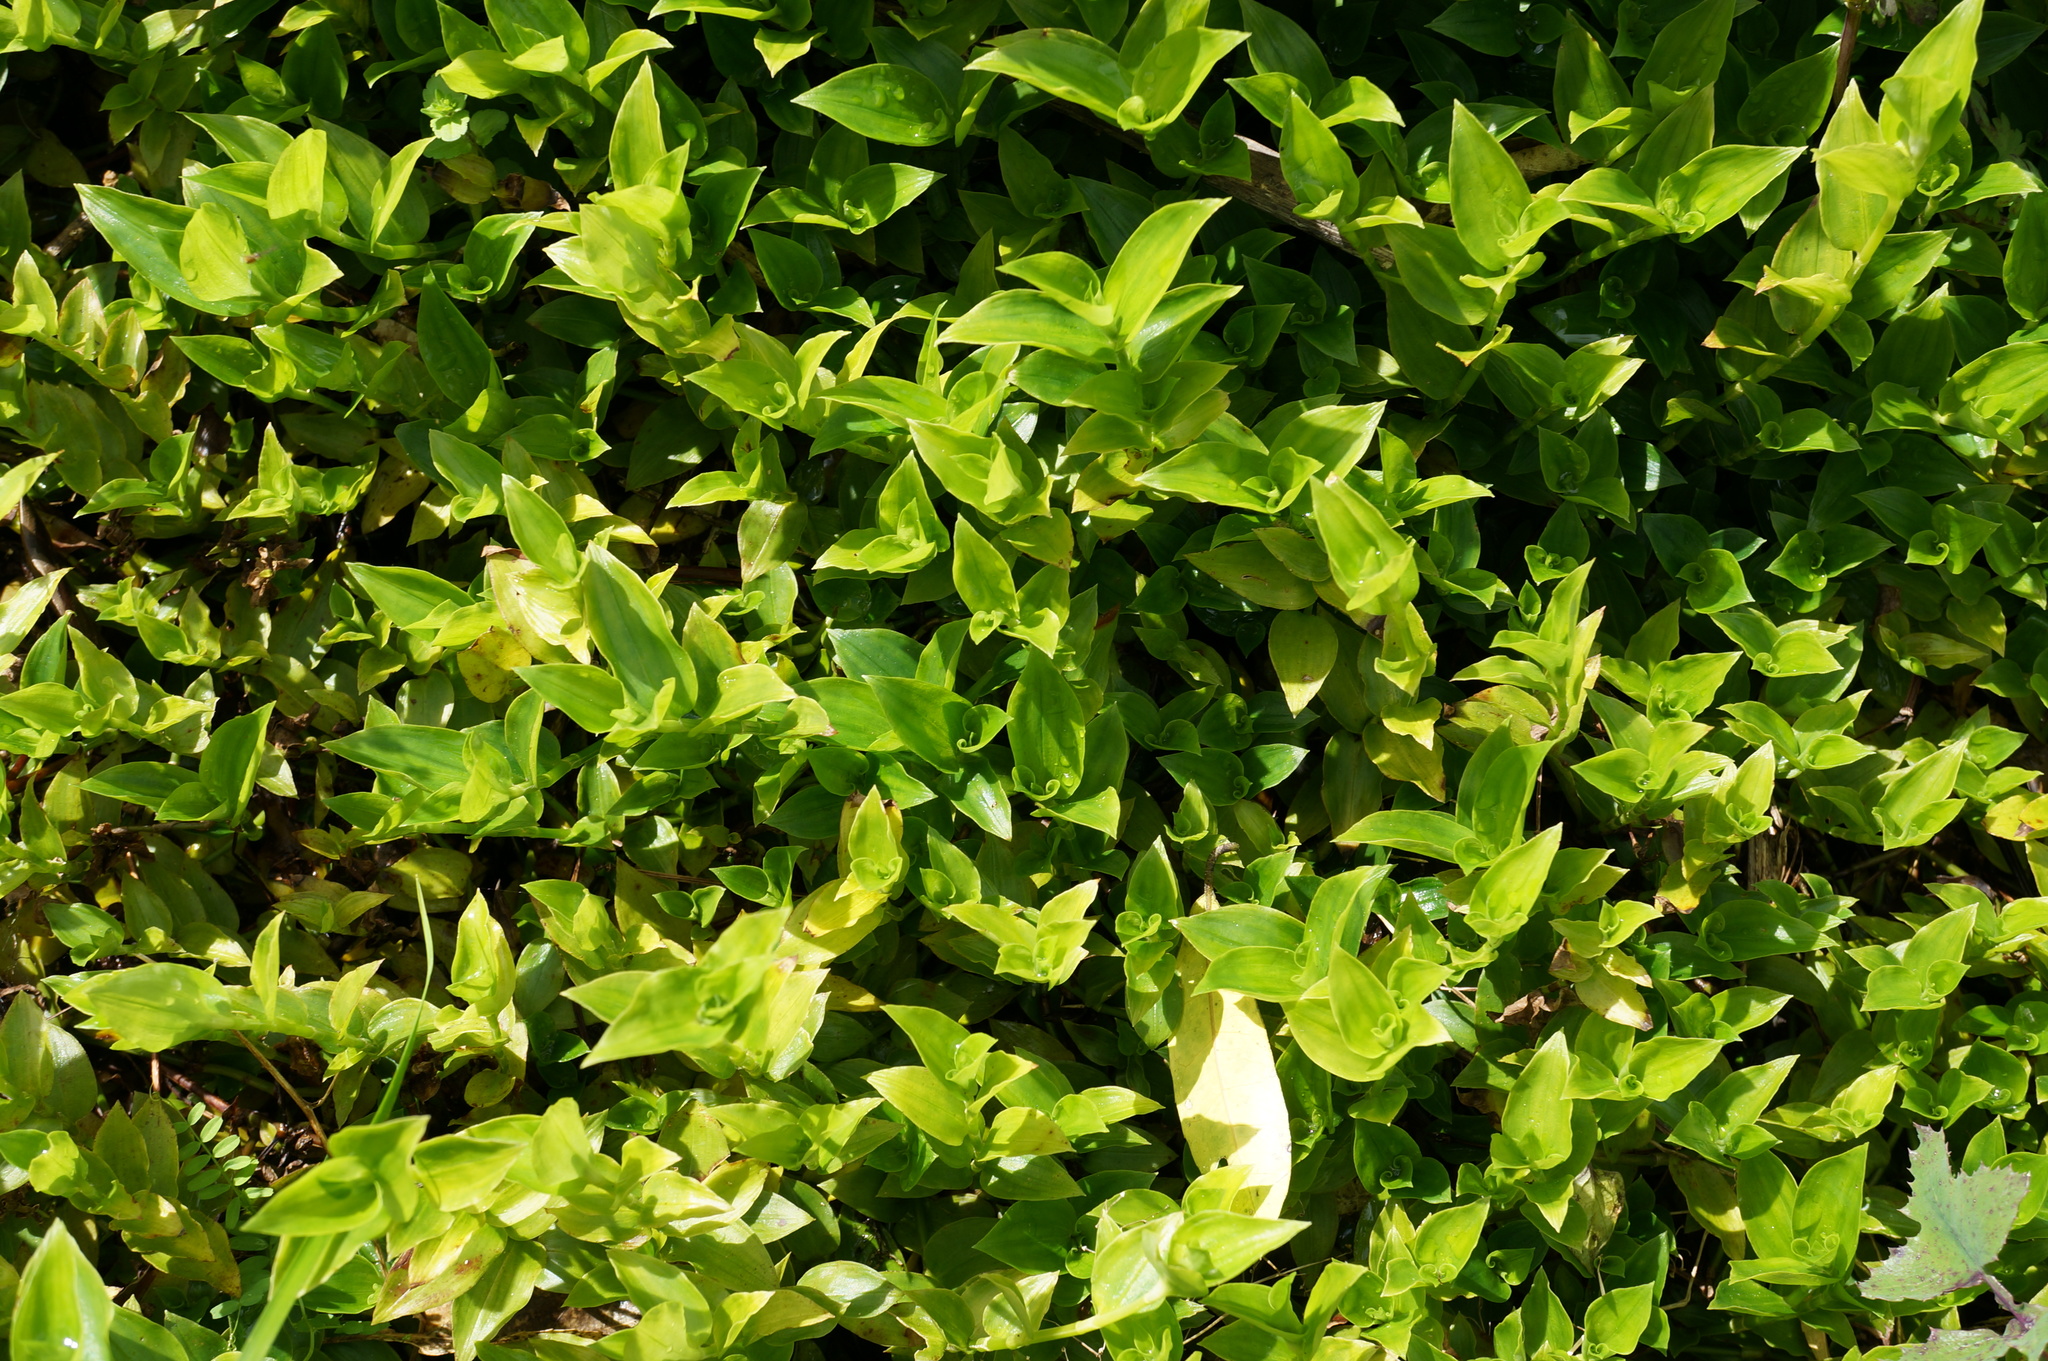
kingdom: Plantae
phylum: Tracheophyta
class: Liliopsida
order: Commelinales
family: Commelinaceae
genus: Tradescantia
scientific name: Tradescantia fluminensis
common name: Wandering-jew
